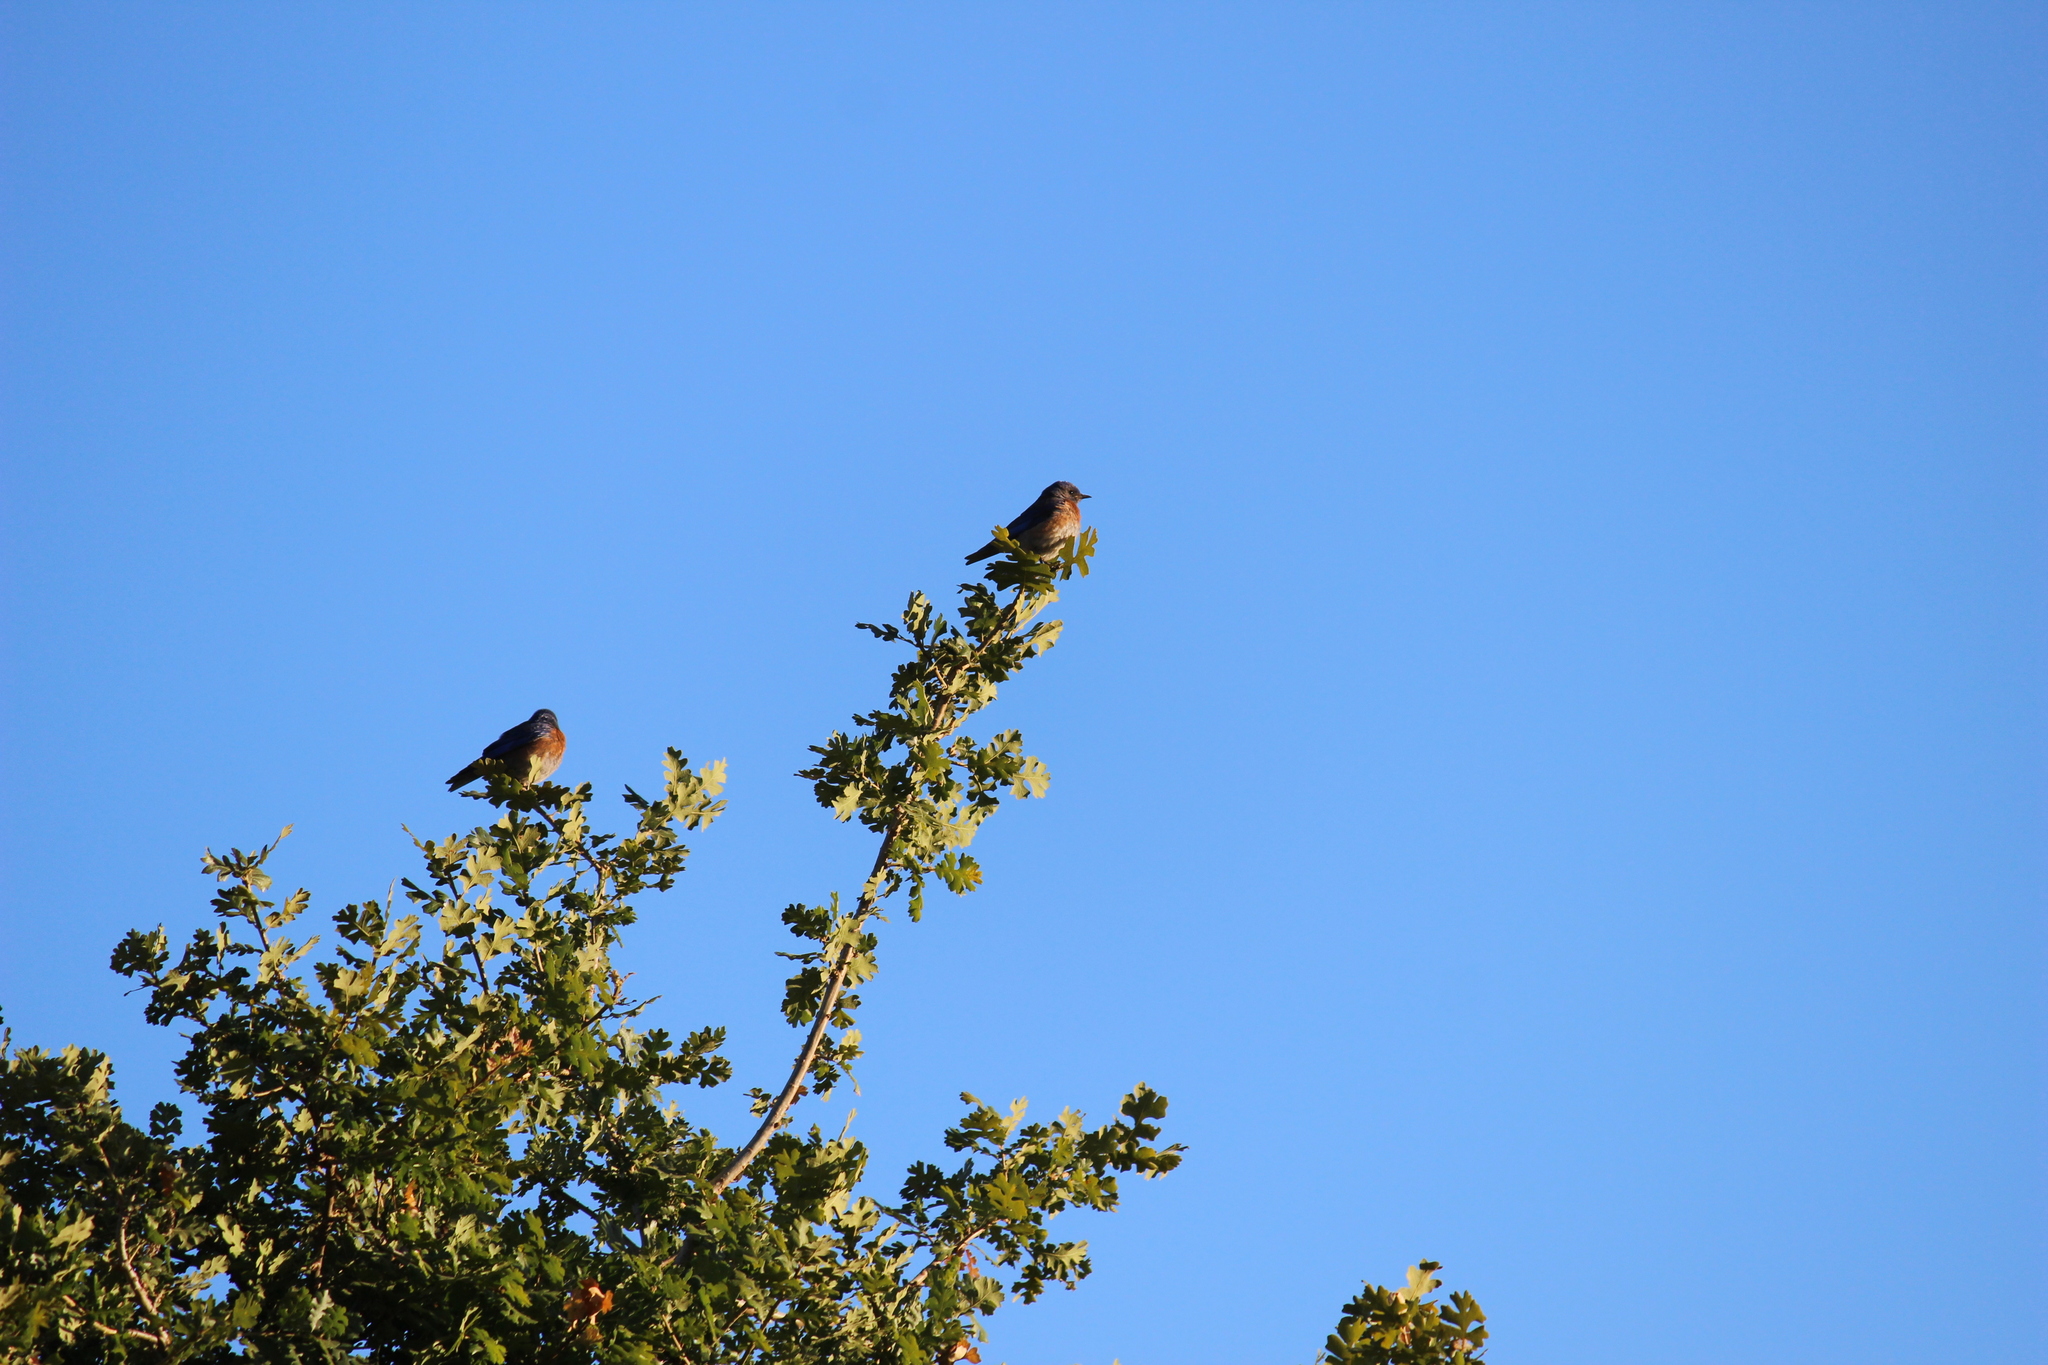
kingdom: Animalia
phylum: Chordata
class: Aves
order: Passeriformes
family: Turdidae
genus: Sialia
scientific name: Sialia mexicana
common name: Western bluebird
